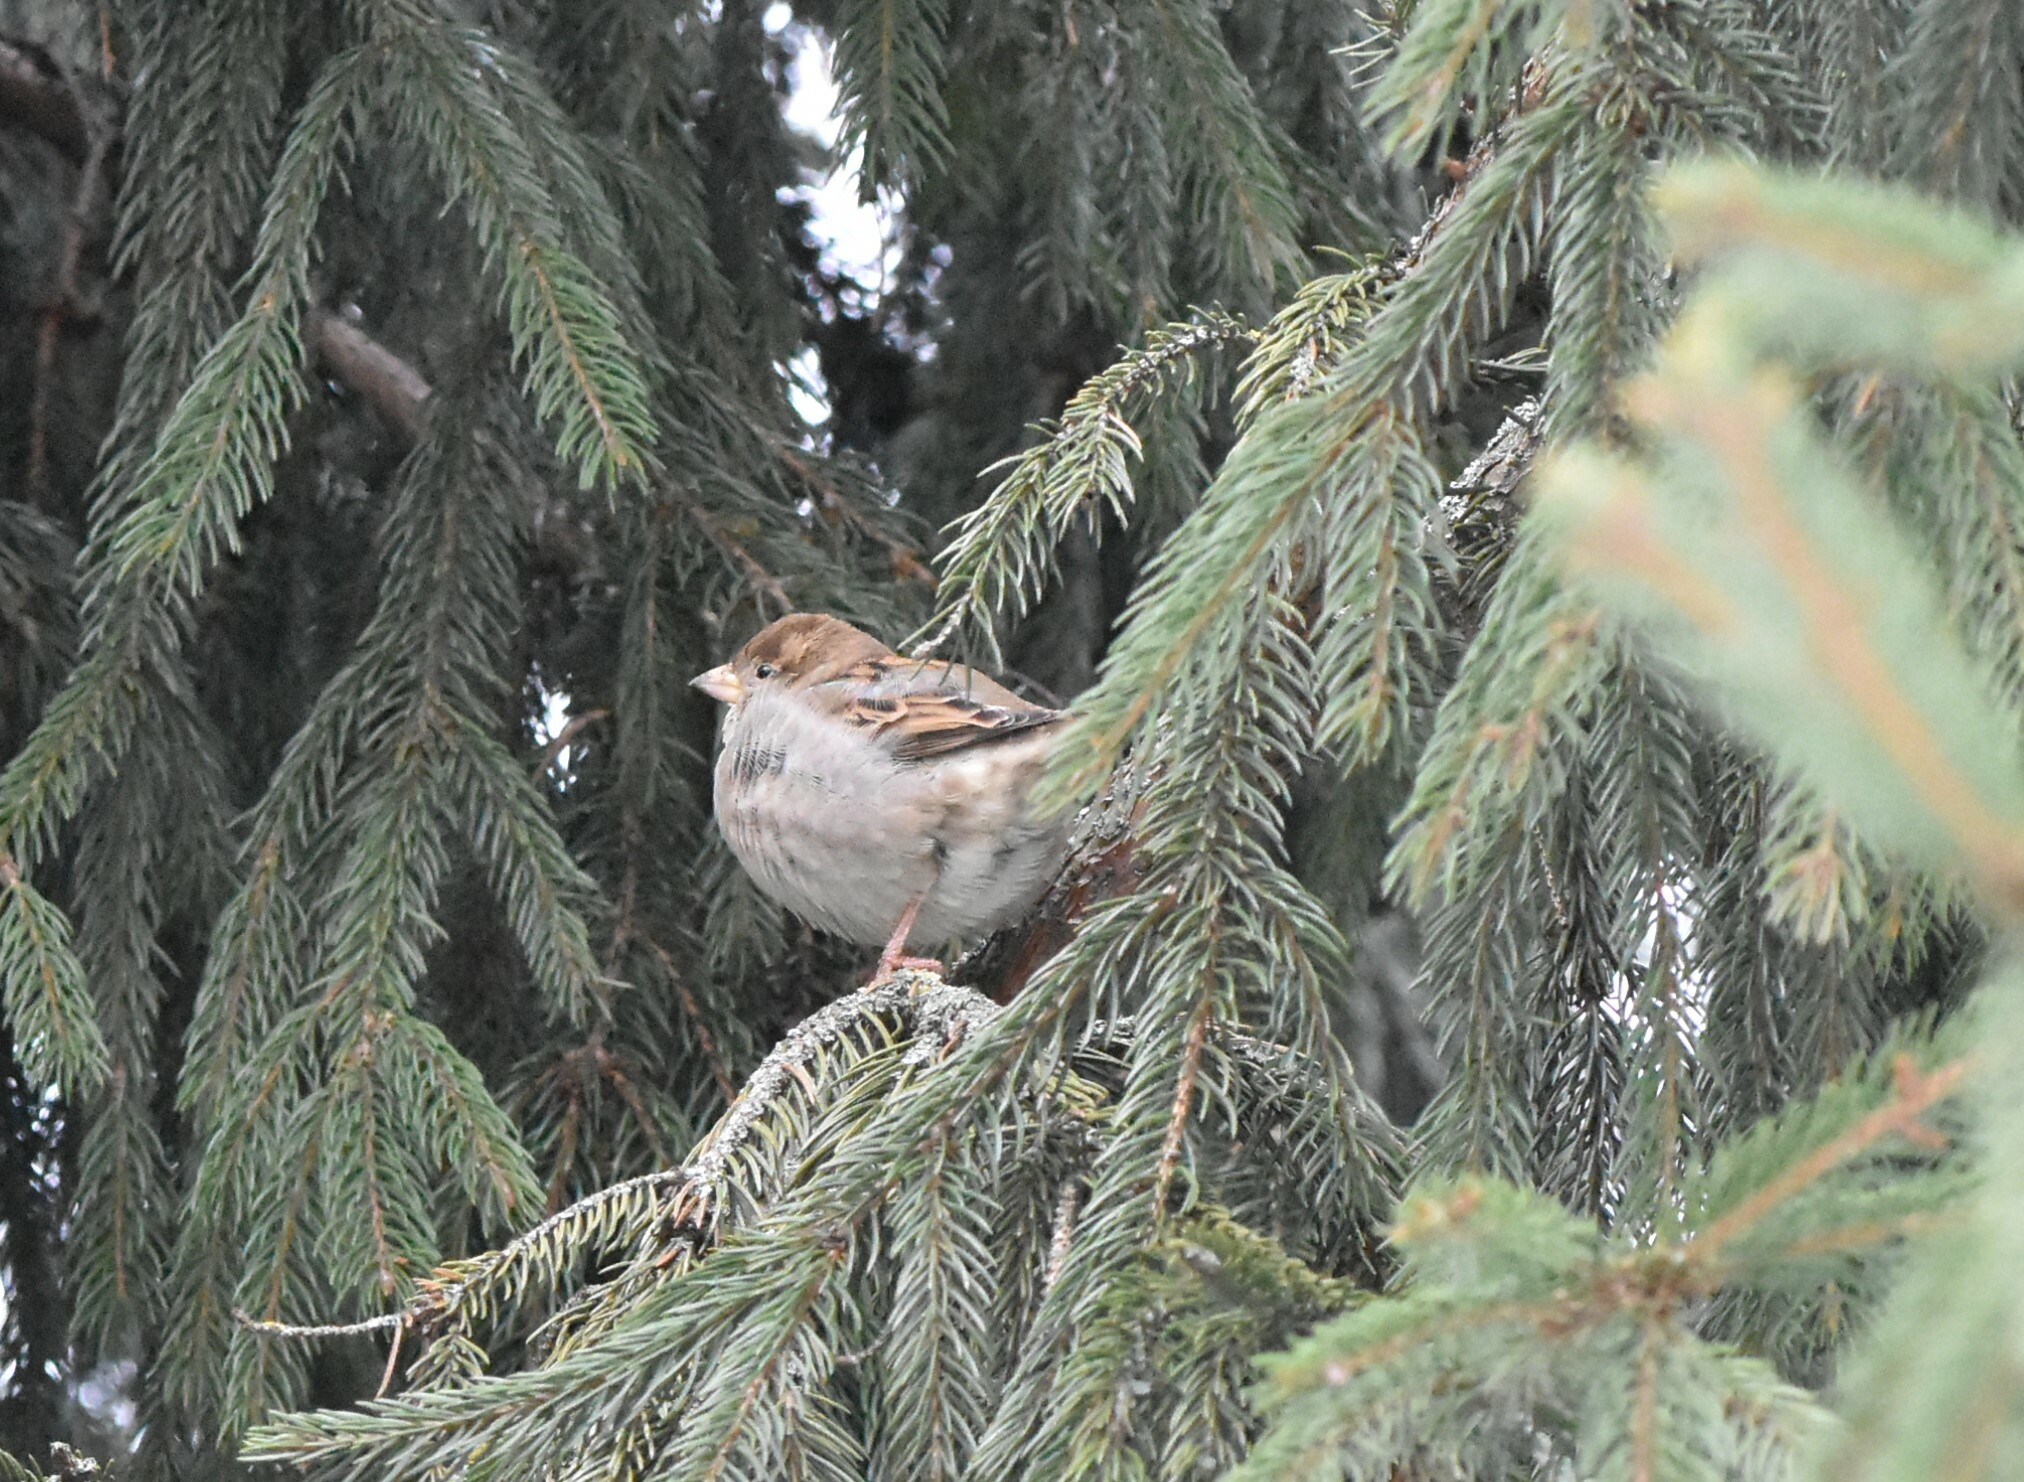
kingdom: Animalia
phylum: Chordata
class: Aves
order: Passeriformes
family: Passeridae
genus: Passer
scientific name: Passer domesticus
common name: House sparrow
